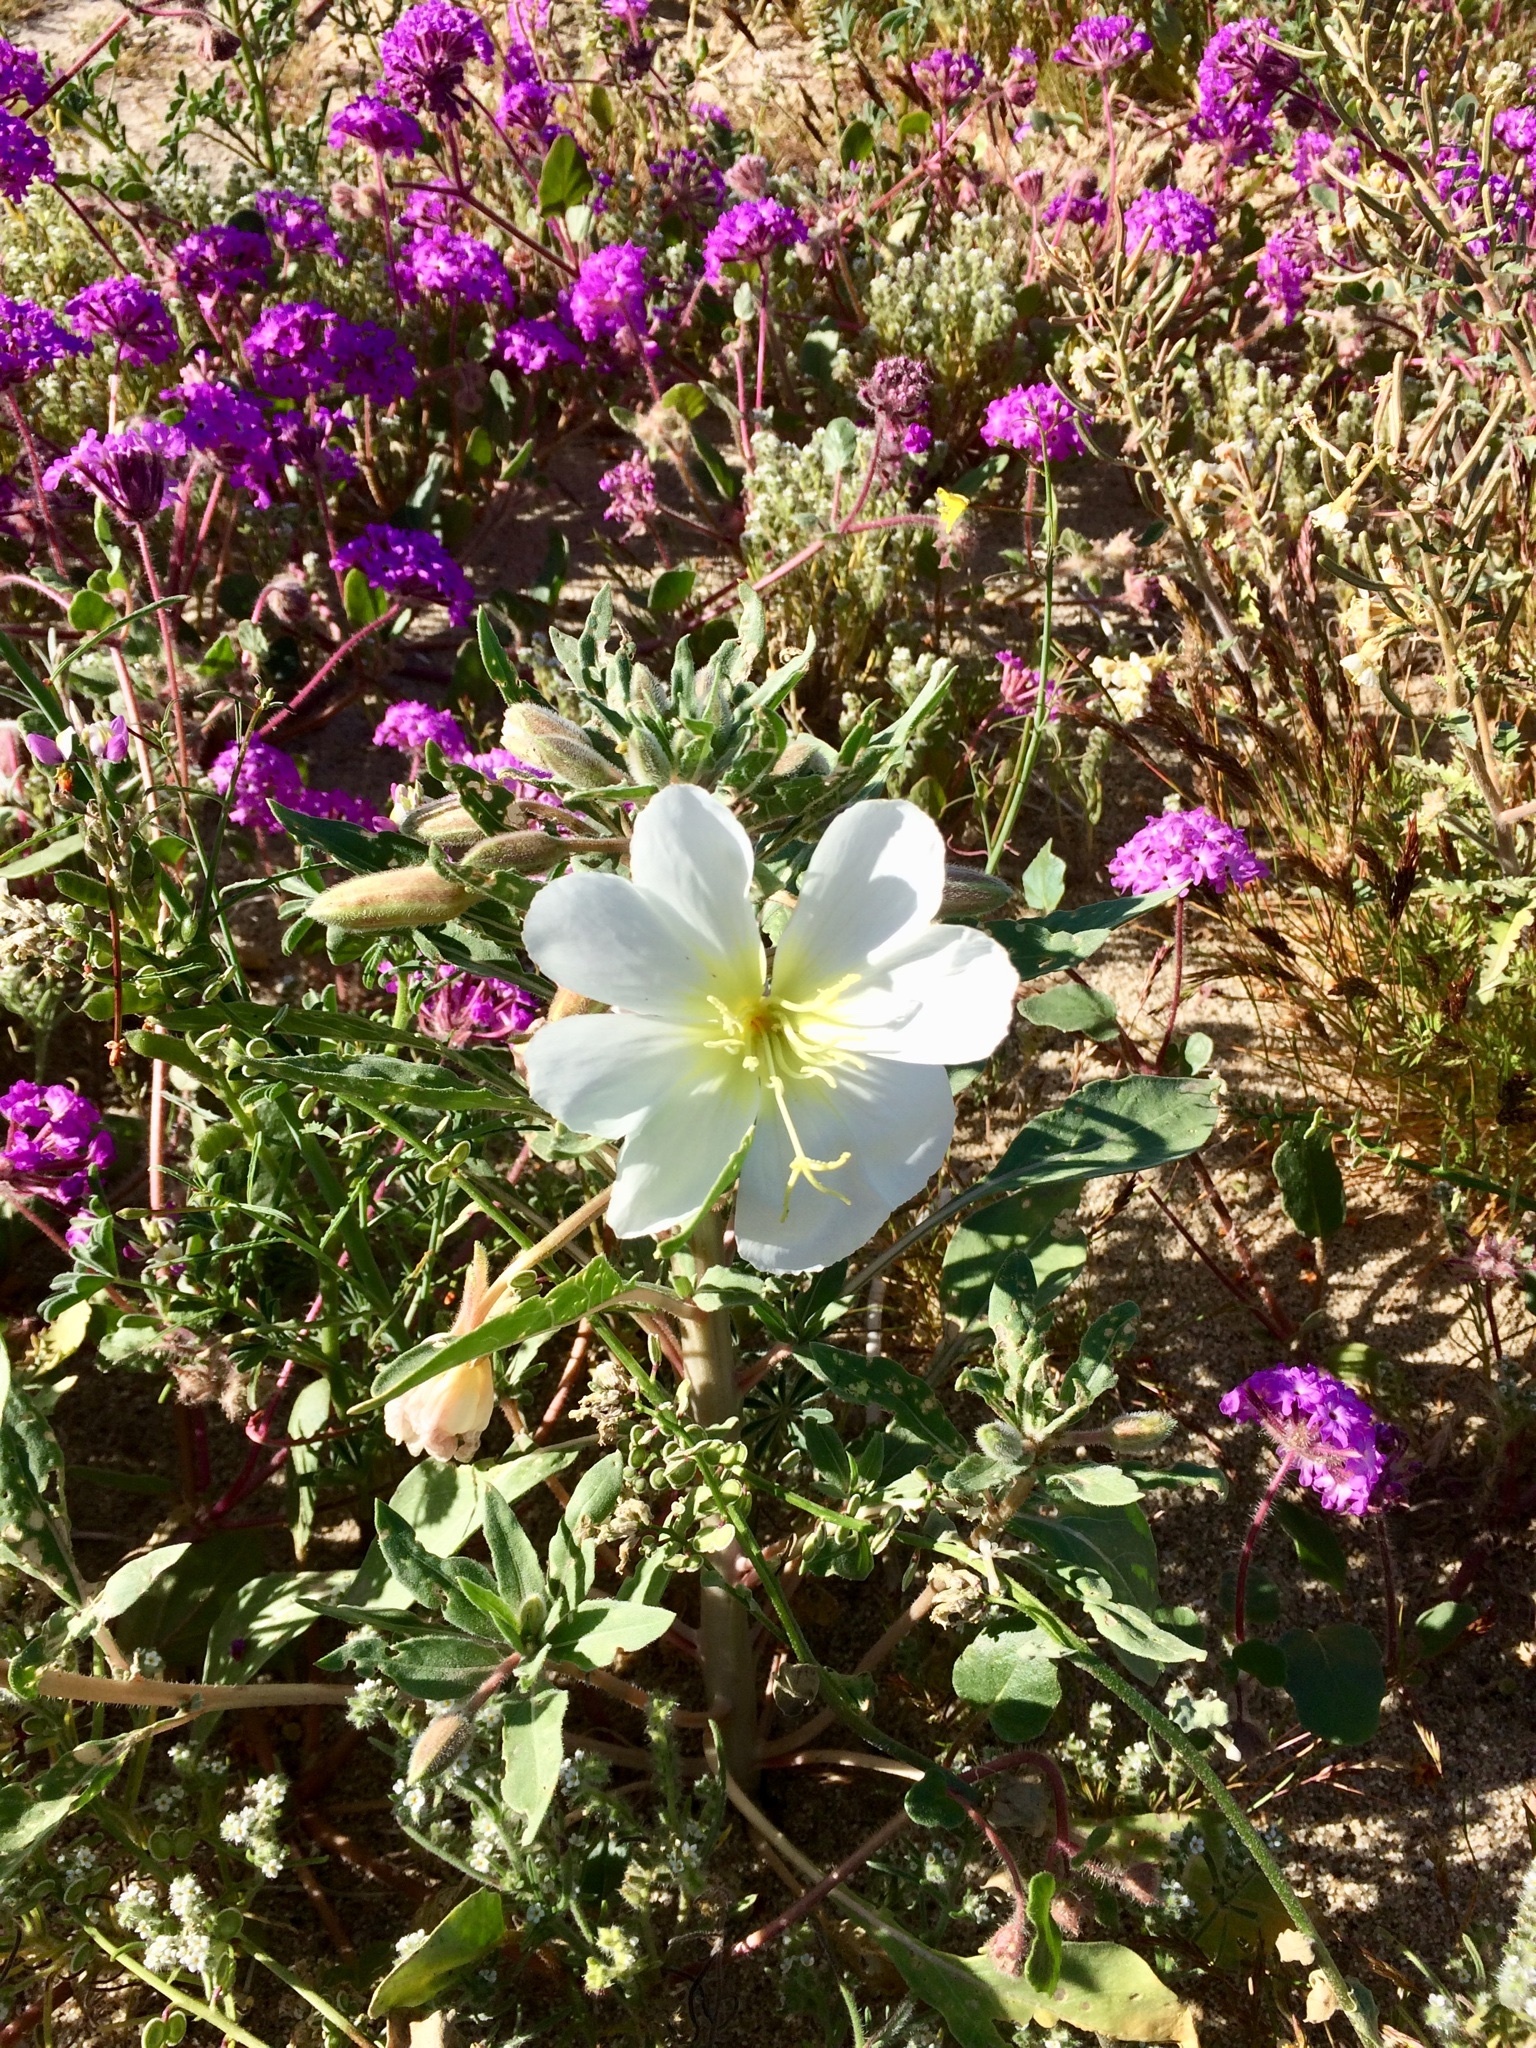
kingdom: Plantae
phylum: Tracheophyta
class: Magnoliopsida
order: Myrtales
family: Onagraceae
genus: Oenothera
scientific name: Oenothera deltoides
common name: Basket evening-primrose
